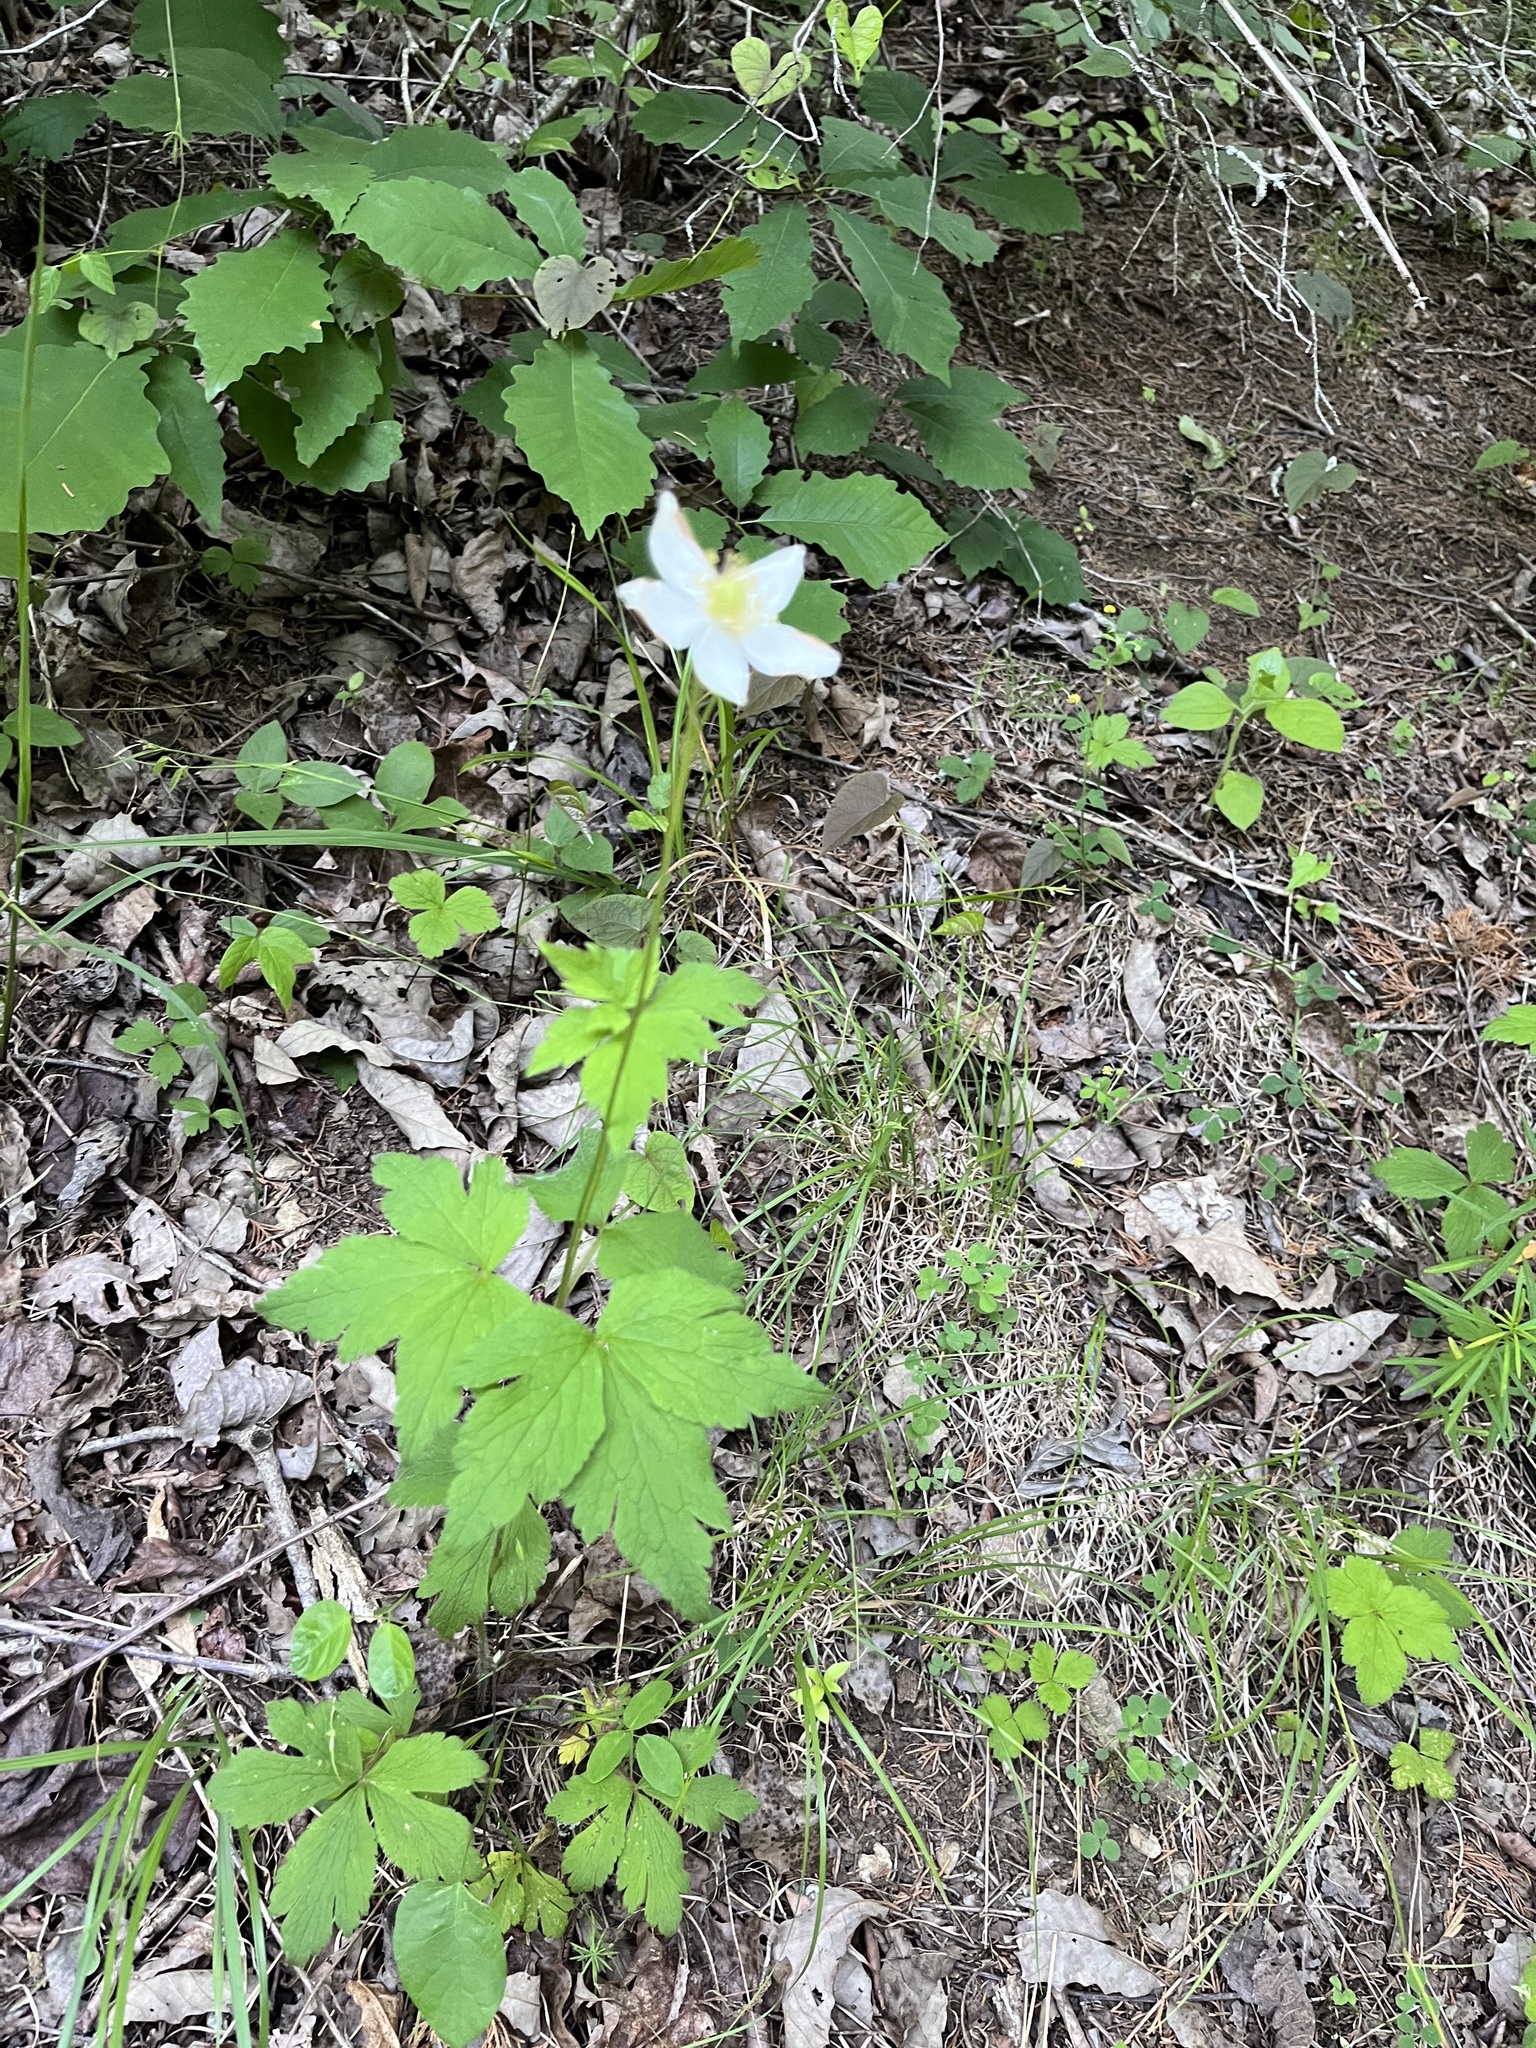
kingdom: Plantae
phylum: Tracheophyta
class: Magnoliopsida
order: Ranunculales
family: Ranunculaceae
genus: Anemone
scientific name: Anemone virginiana
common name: Tall anemone
